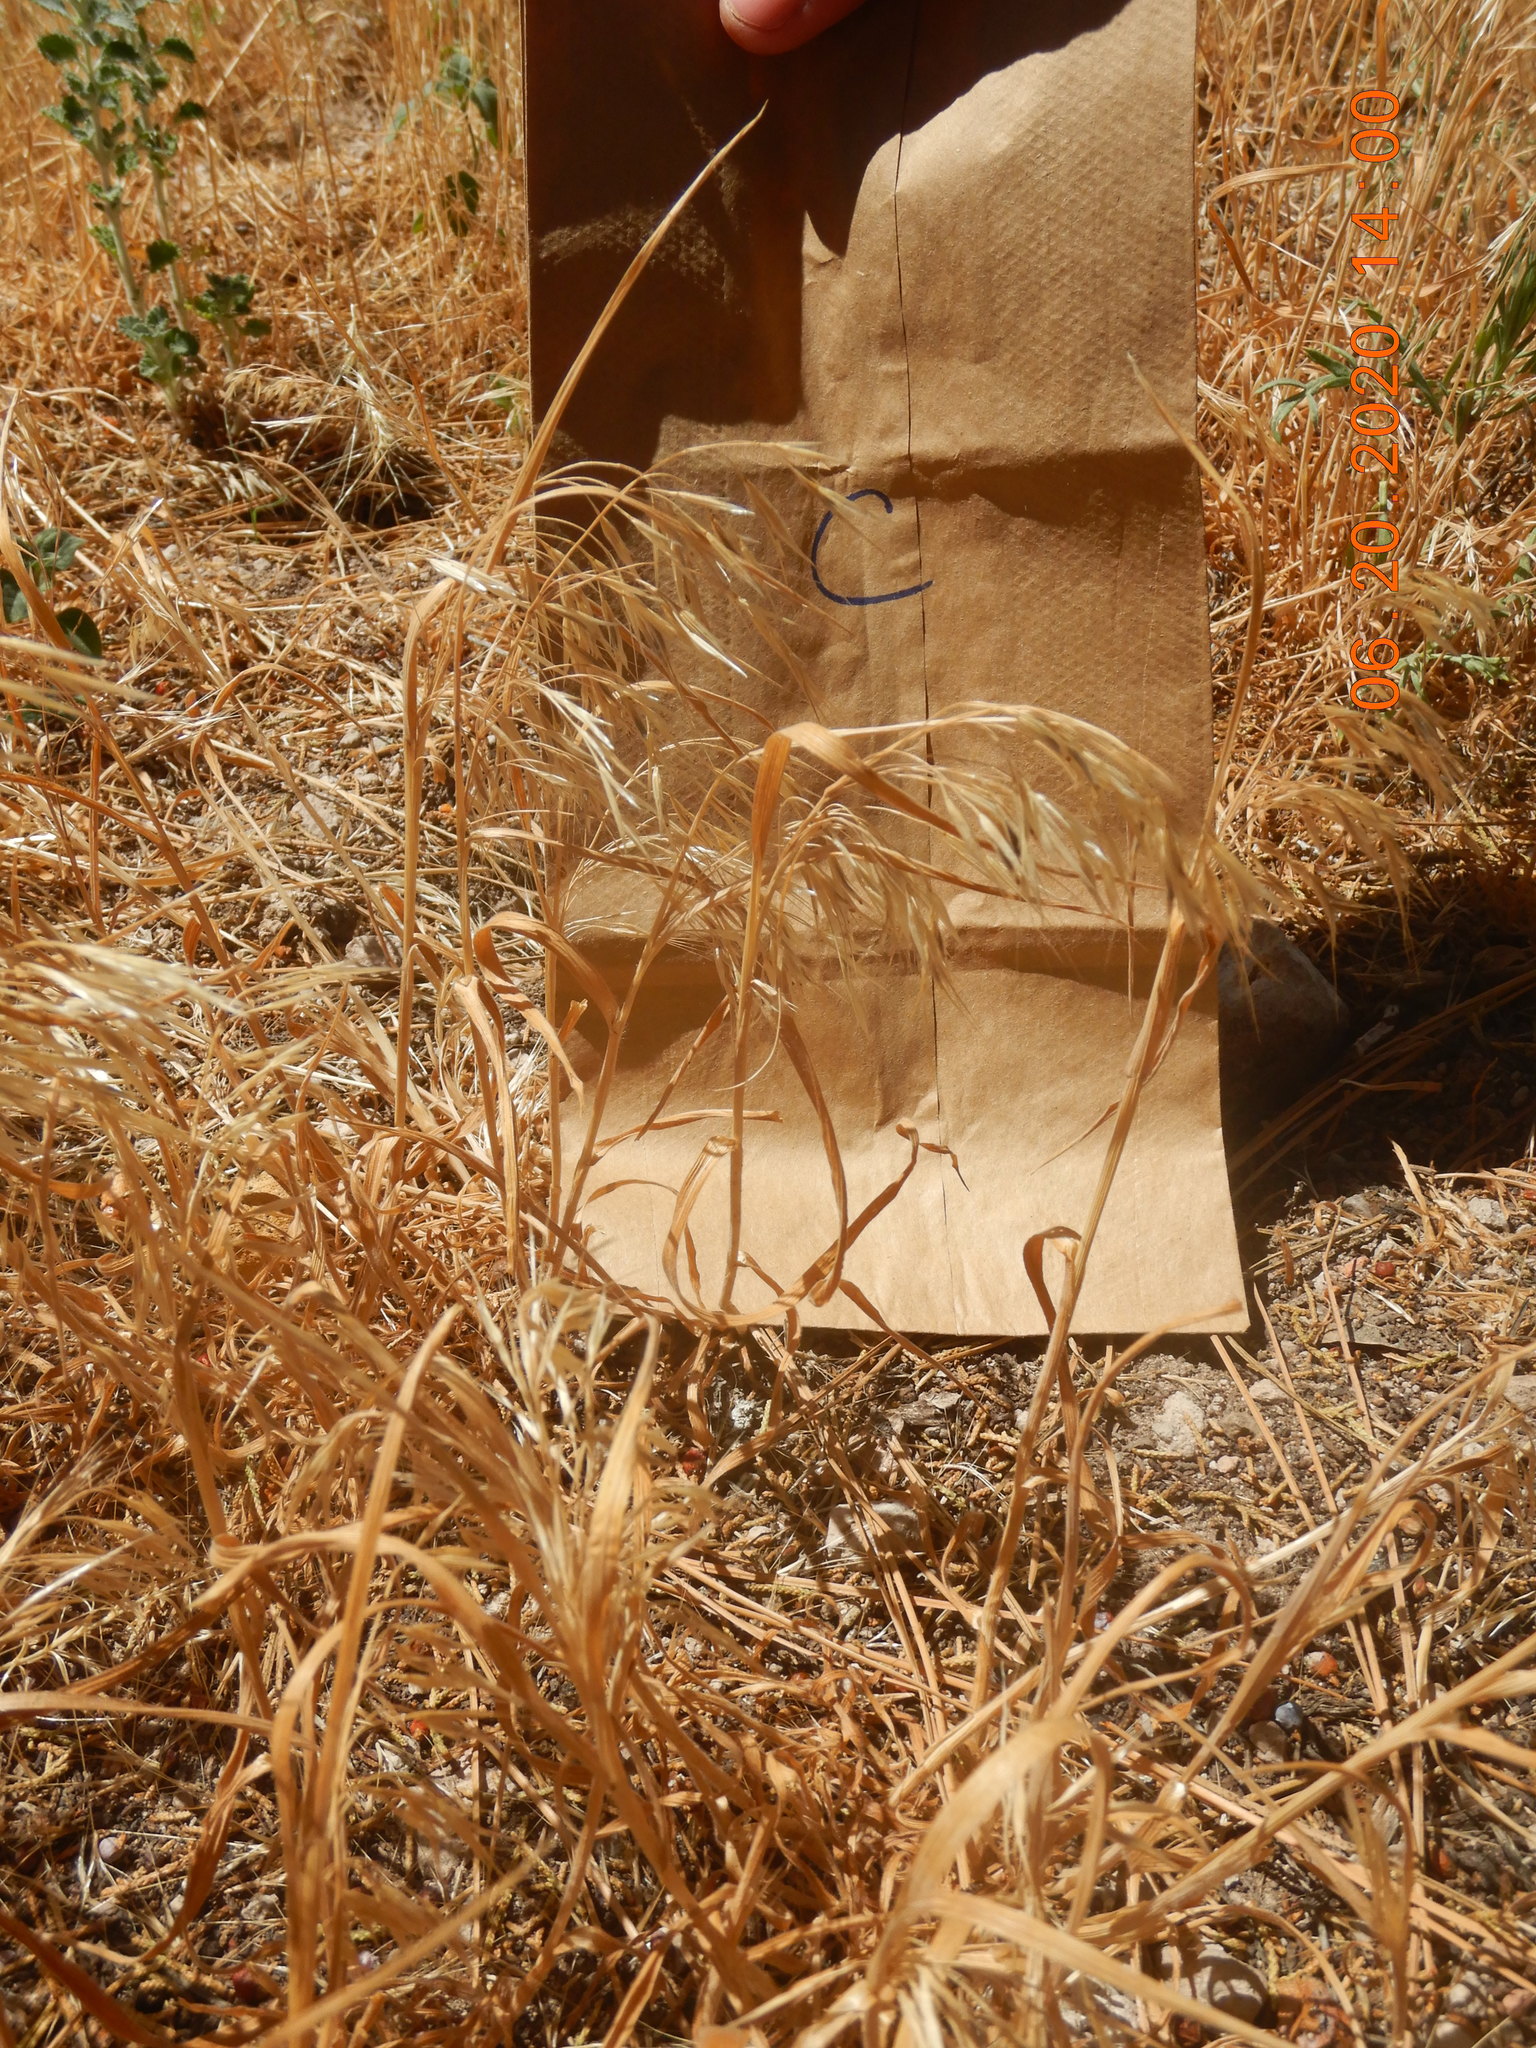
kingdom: Plantae
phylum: Tracheophyta
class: Liliopsida
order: Poales
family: Poaceae
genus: Bromus
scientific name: Bromus tectorum
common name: Cheatgrass
